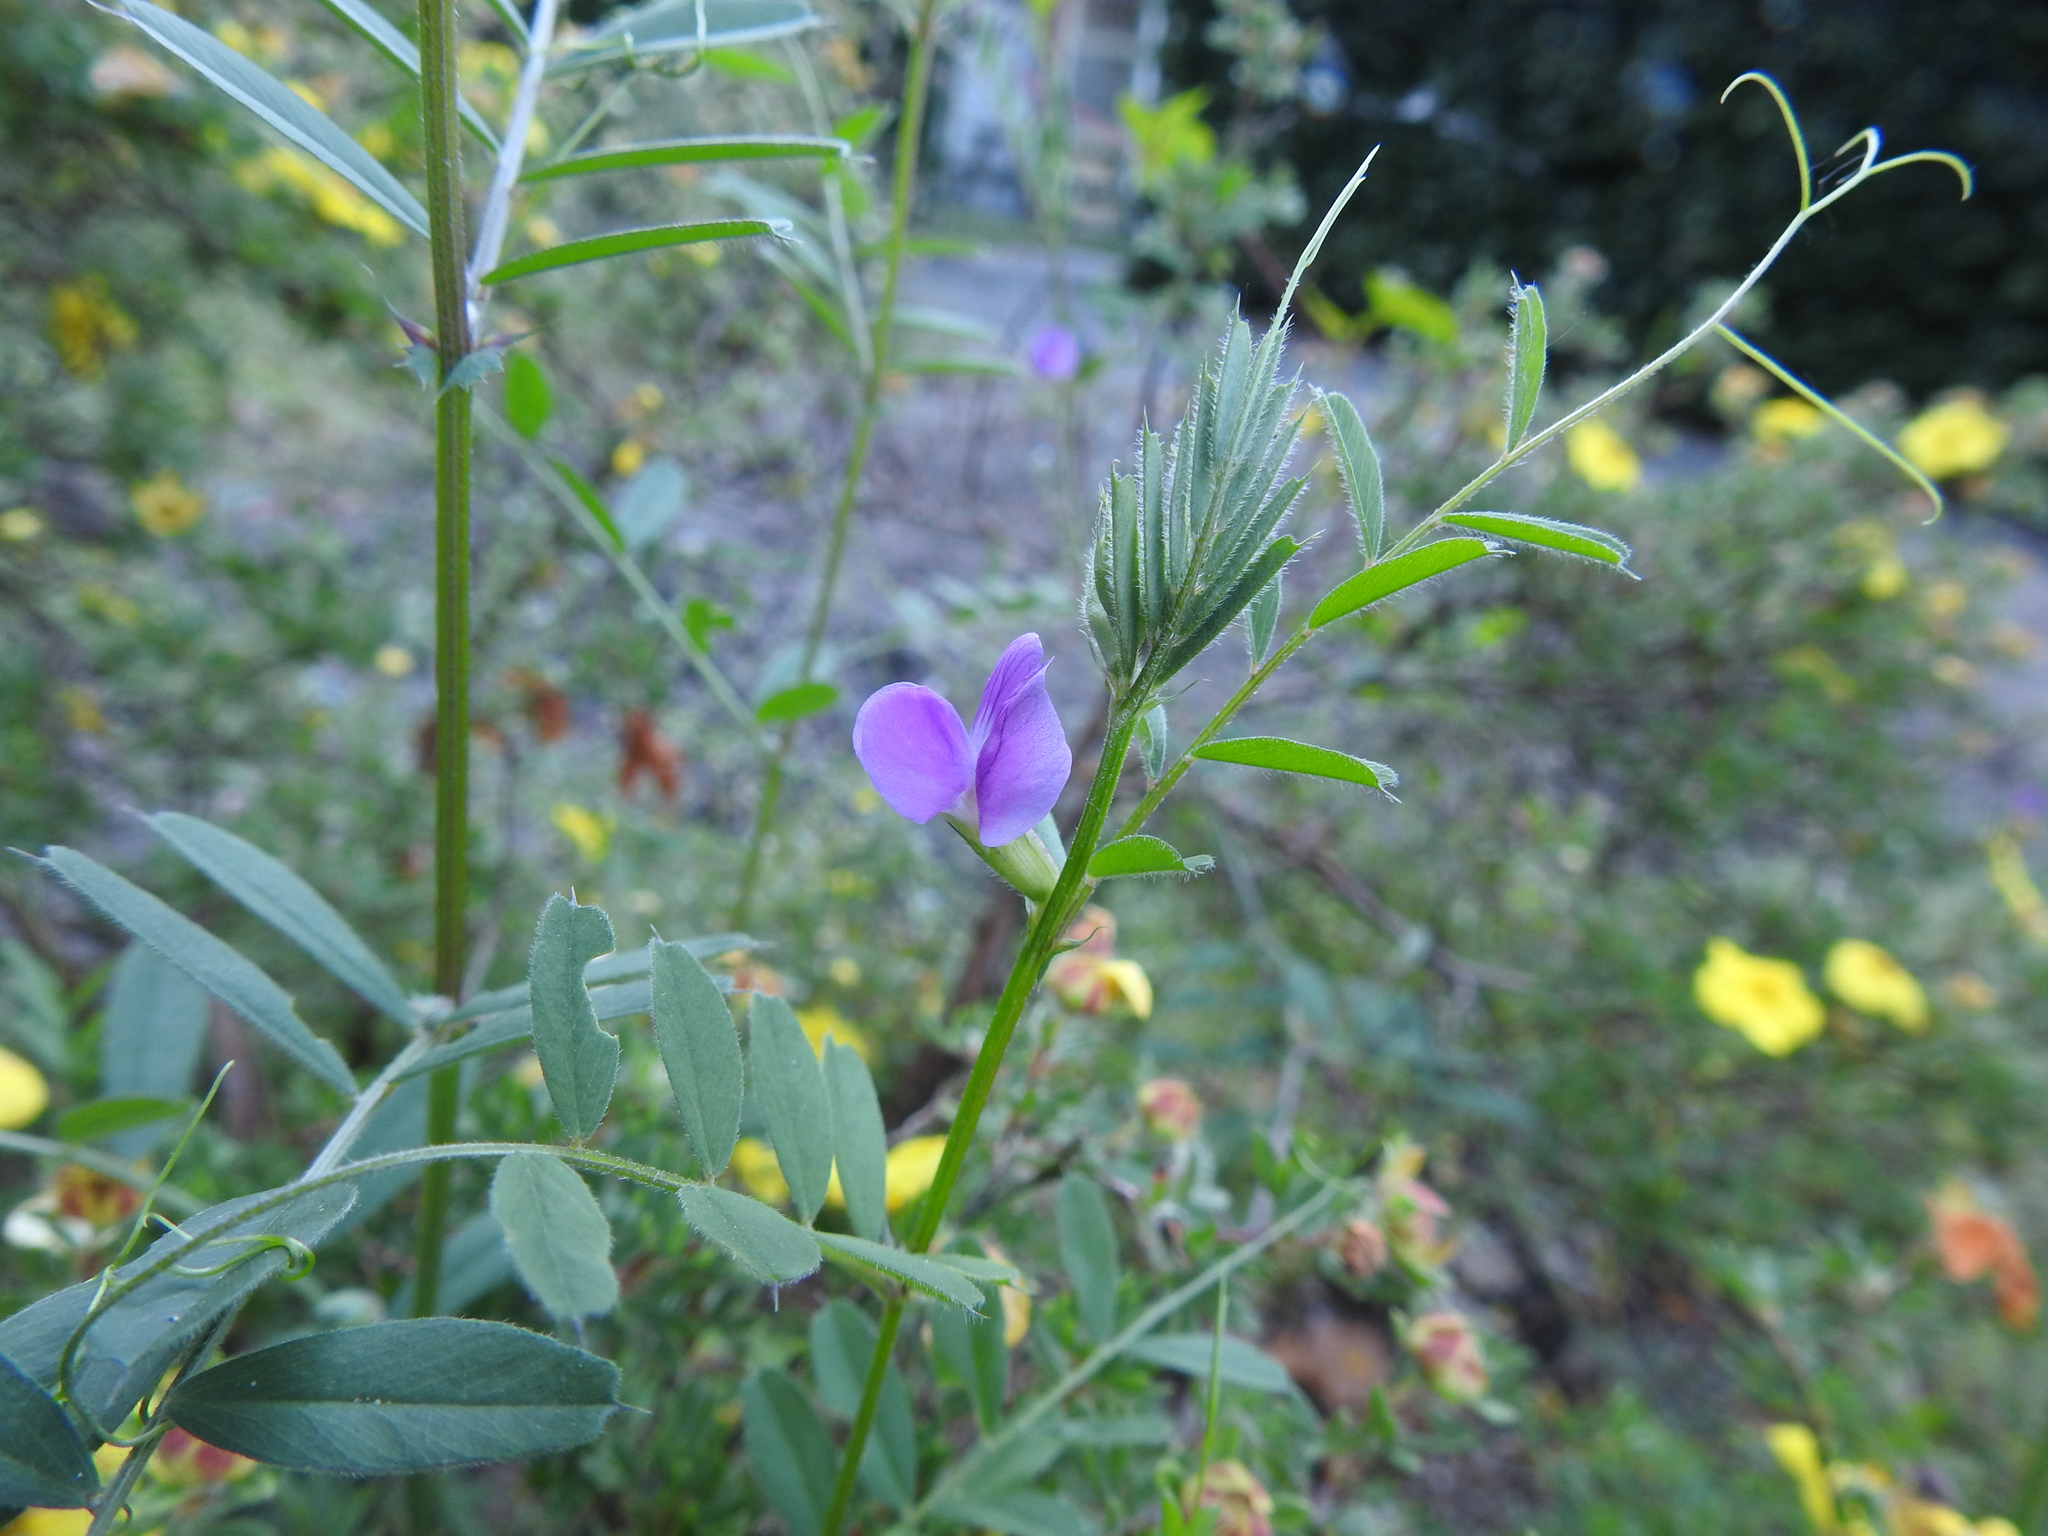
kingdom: Plantae
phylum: Tracheophyta
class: Magnoliopsida
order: Fabales
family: Fabaceae
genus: Vicia
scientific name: Vicia sativa
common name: Garden vetch
